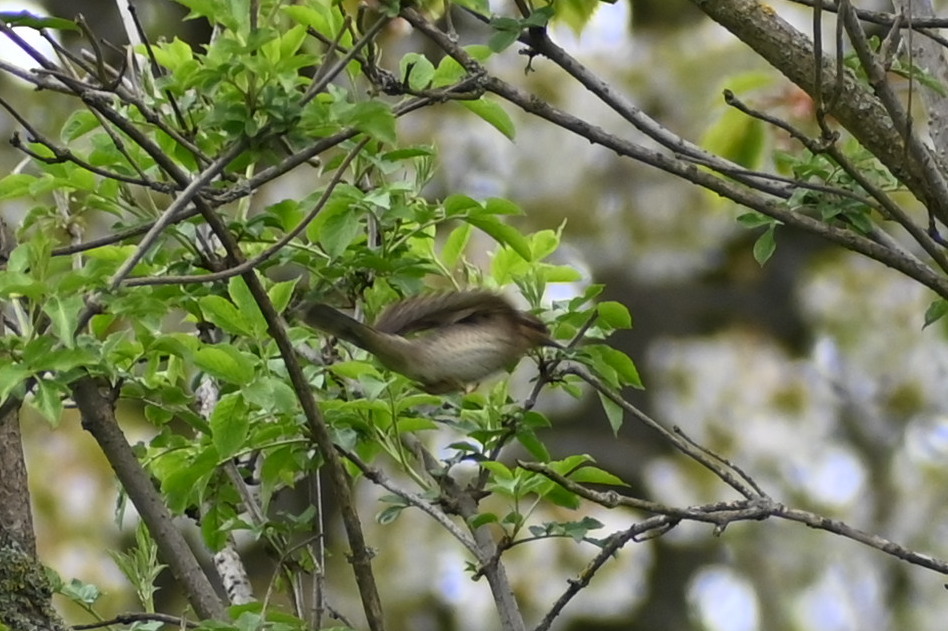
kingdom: Animalia
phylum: Chordata
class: Aves
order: Piciformes
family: Picidae
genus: Jynx
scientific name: Jynx torquilla
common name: Eurasian wryneck
